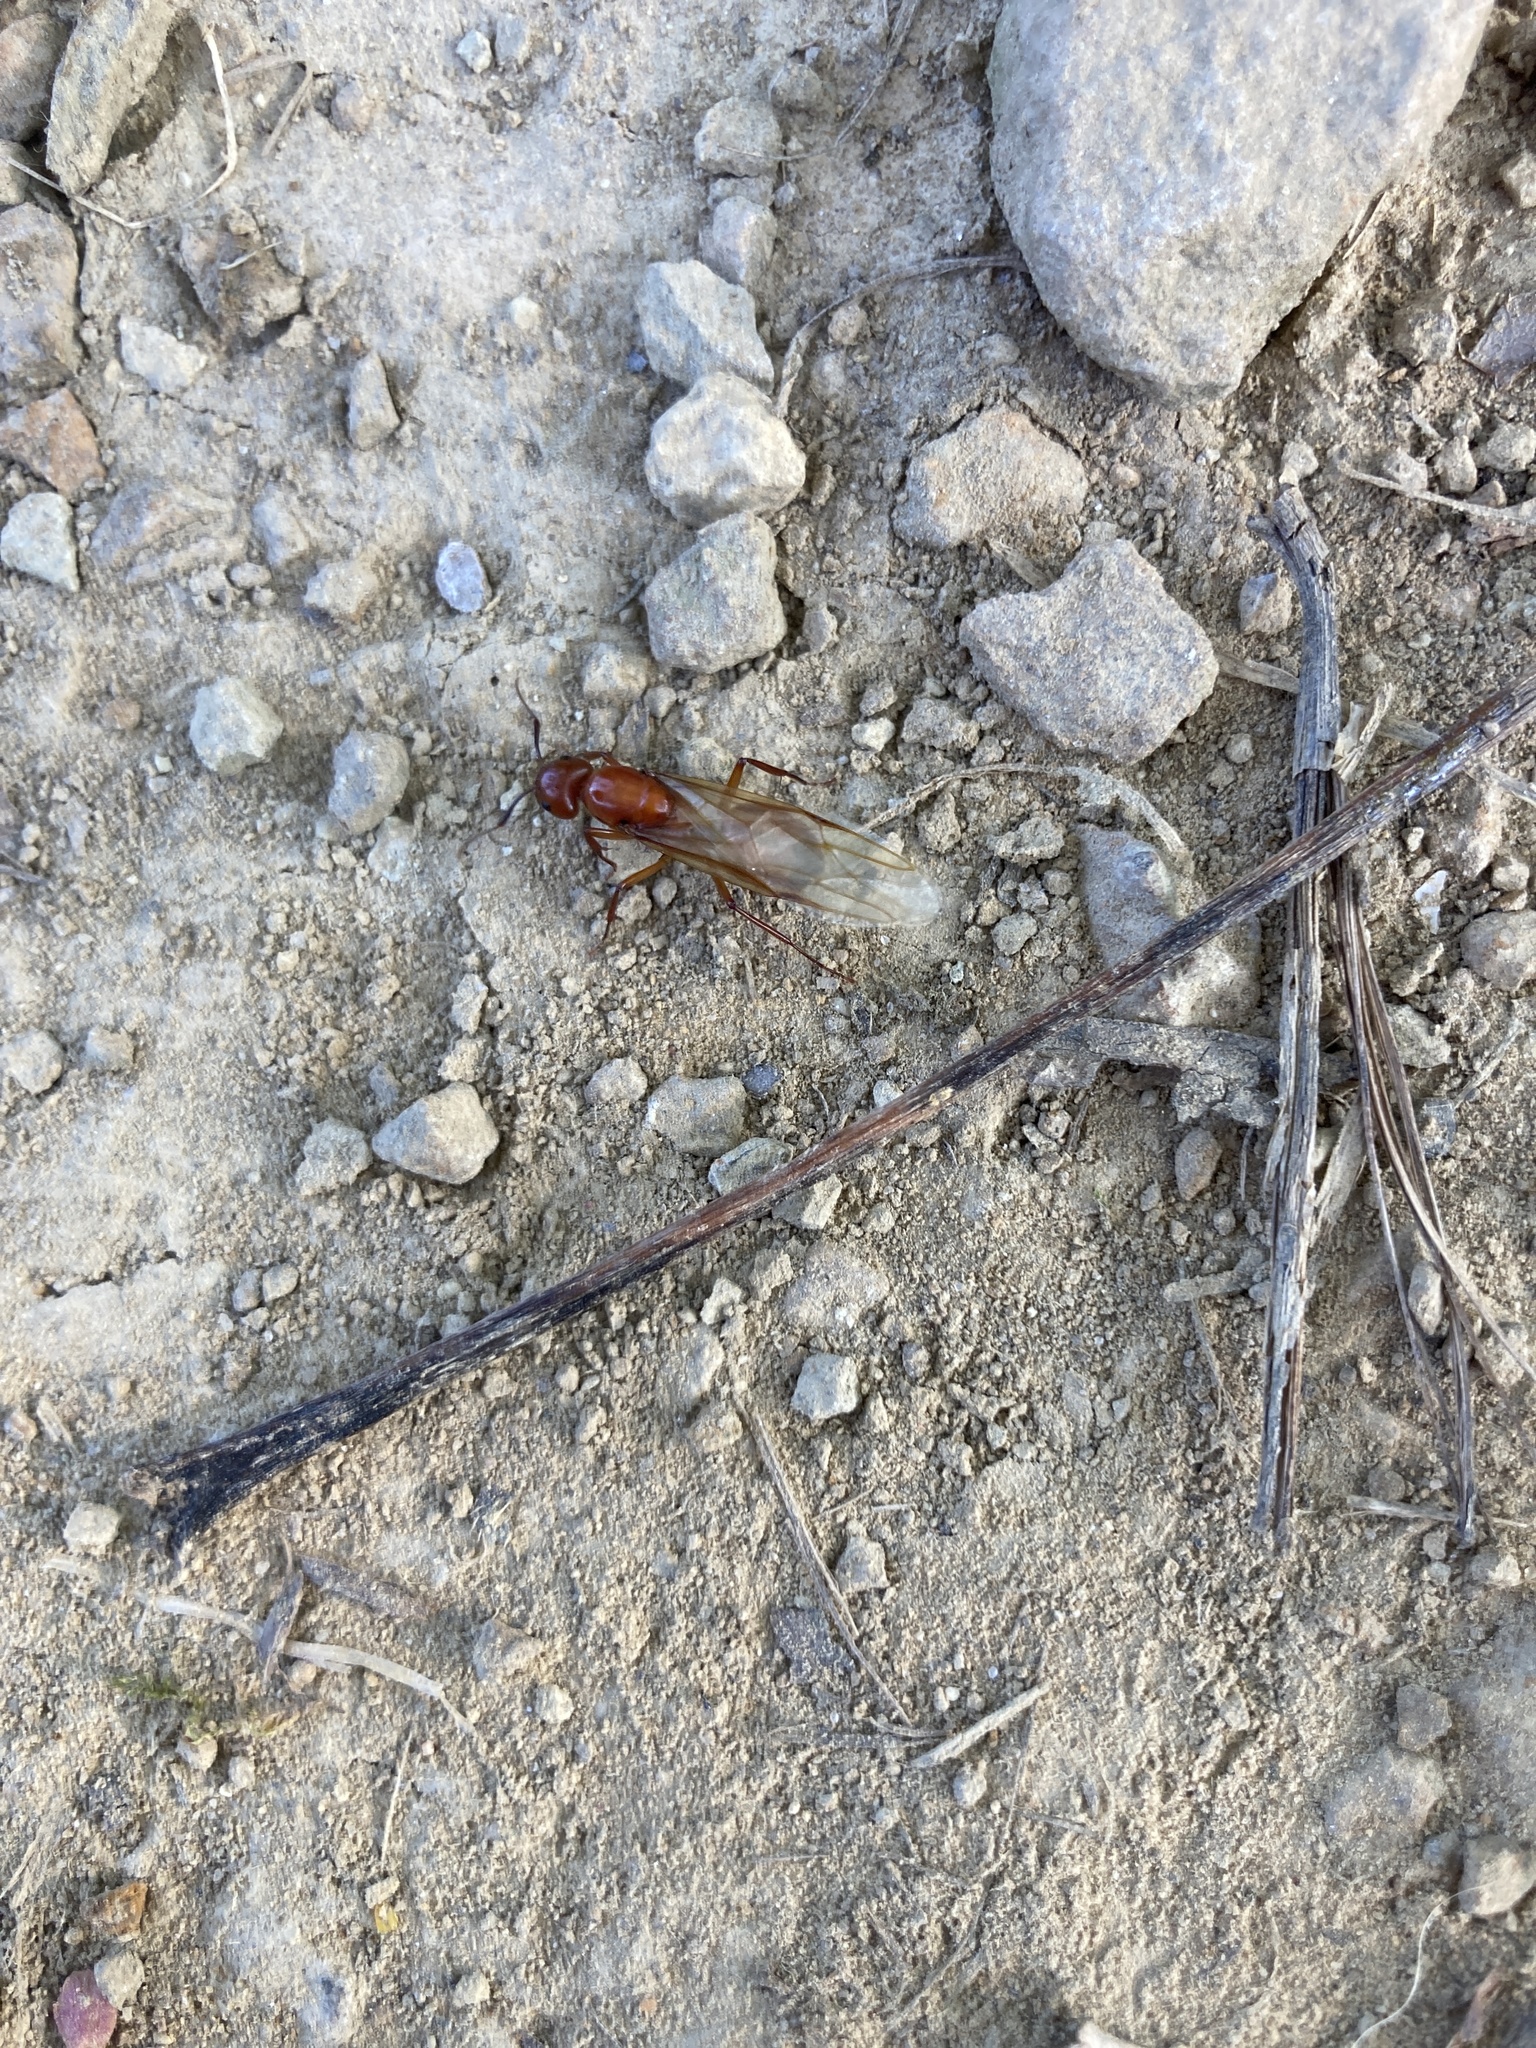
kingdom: Animalia
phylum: Arthropoda
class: Insecta
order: Hymenoptera
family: Formicidae
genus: Camponotus
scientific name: Camponotus castaneus
